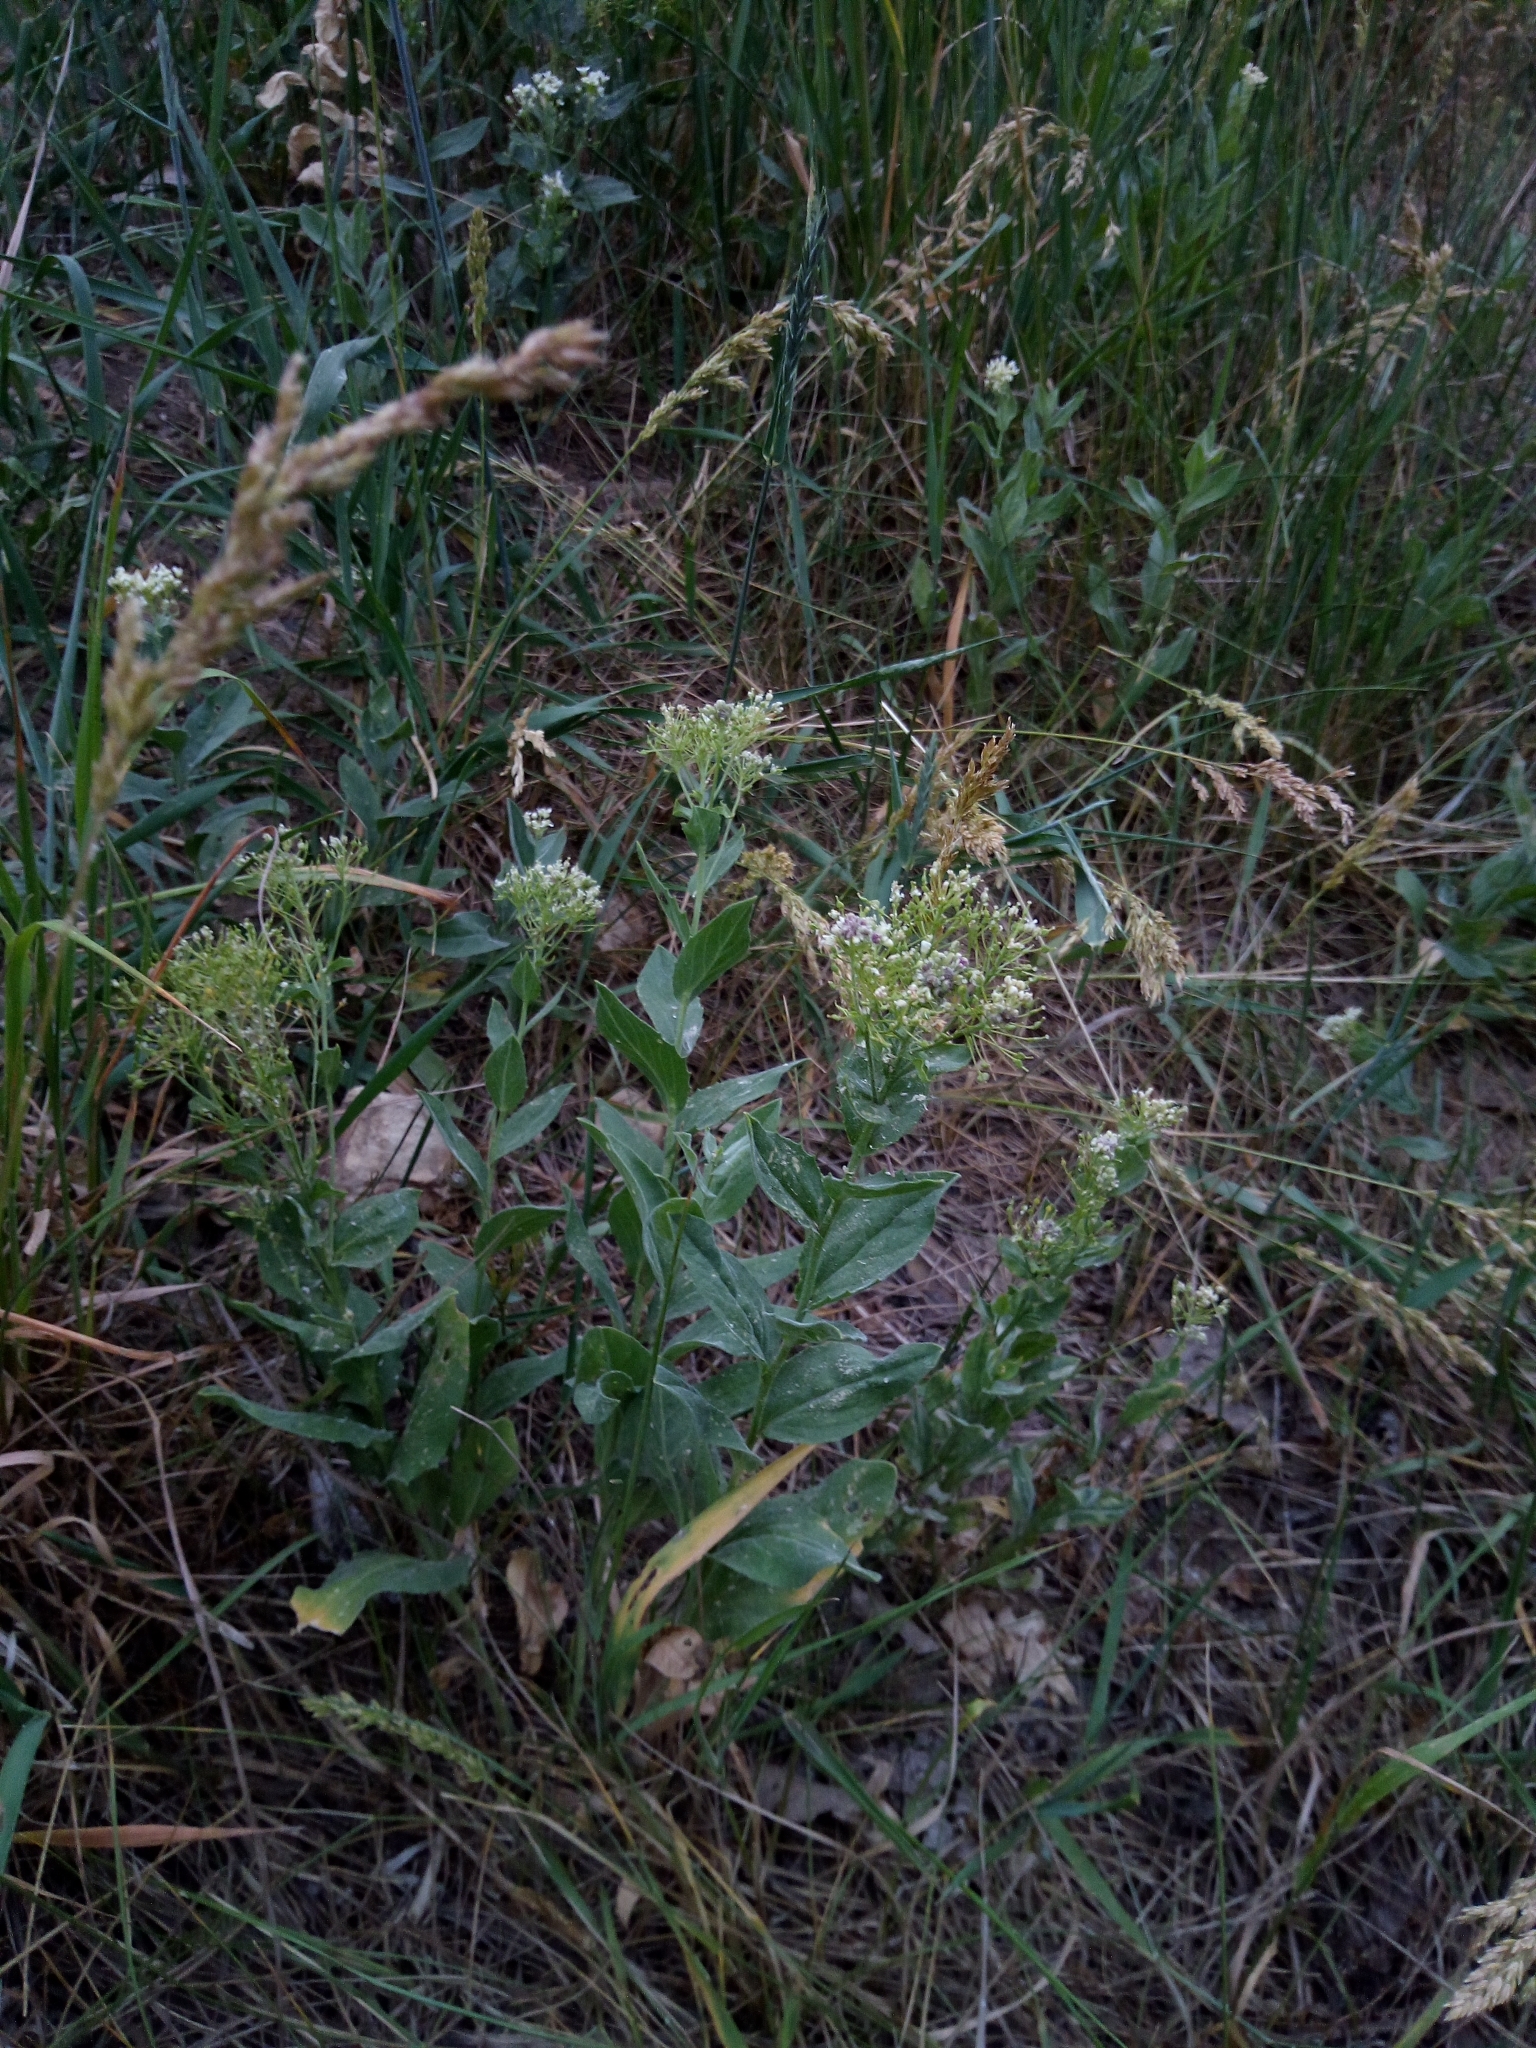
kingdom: Plantae
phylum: Tracheophyta
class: Magnoliopsida
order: Brassicales
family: Brassicaceae
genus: Lepidium
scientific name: Lepidium draba
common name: Hoary cress
